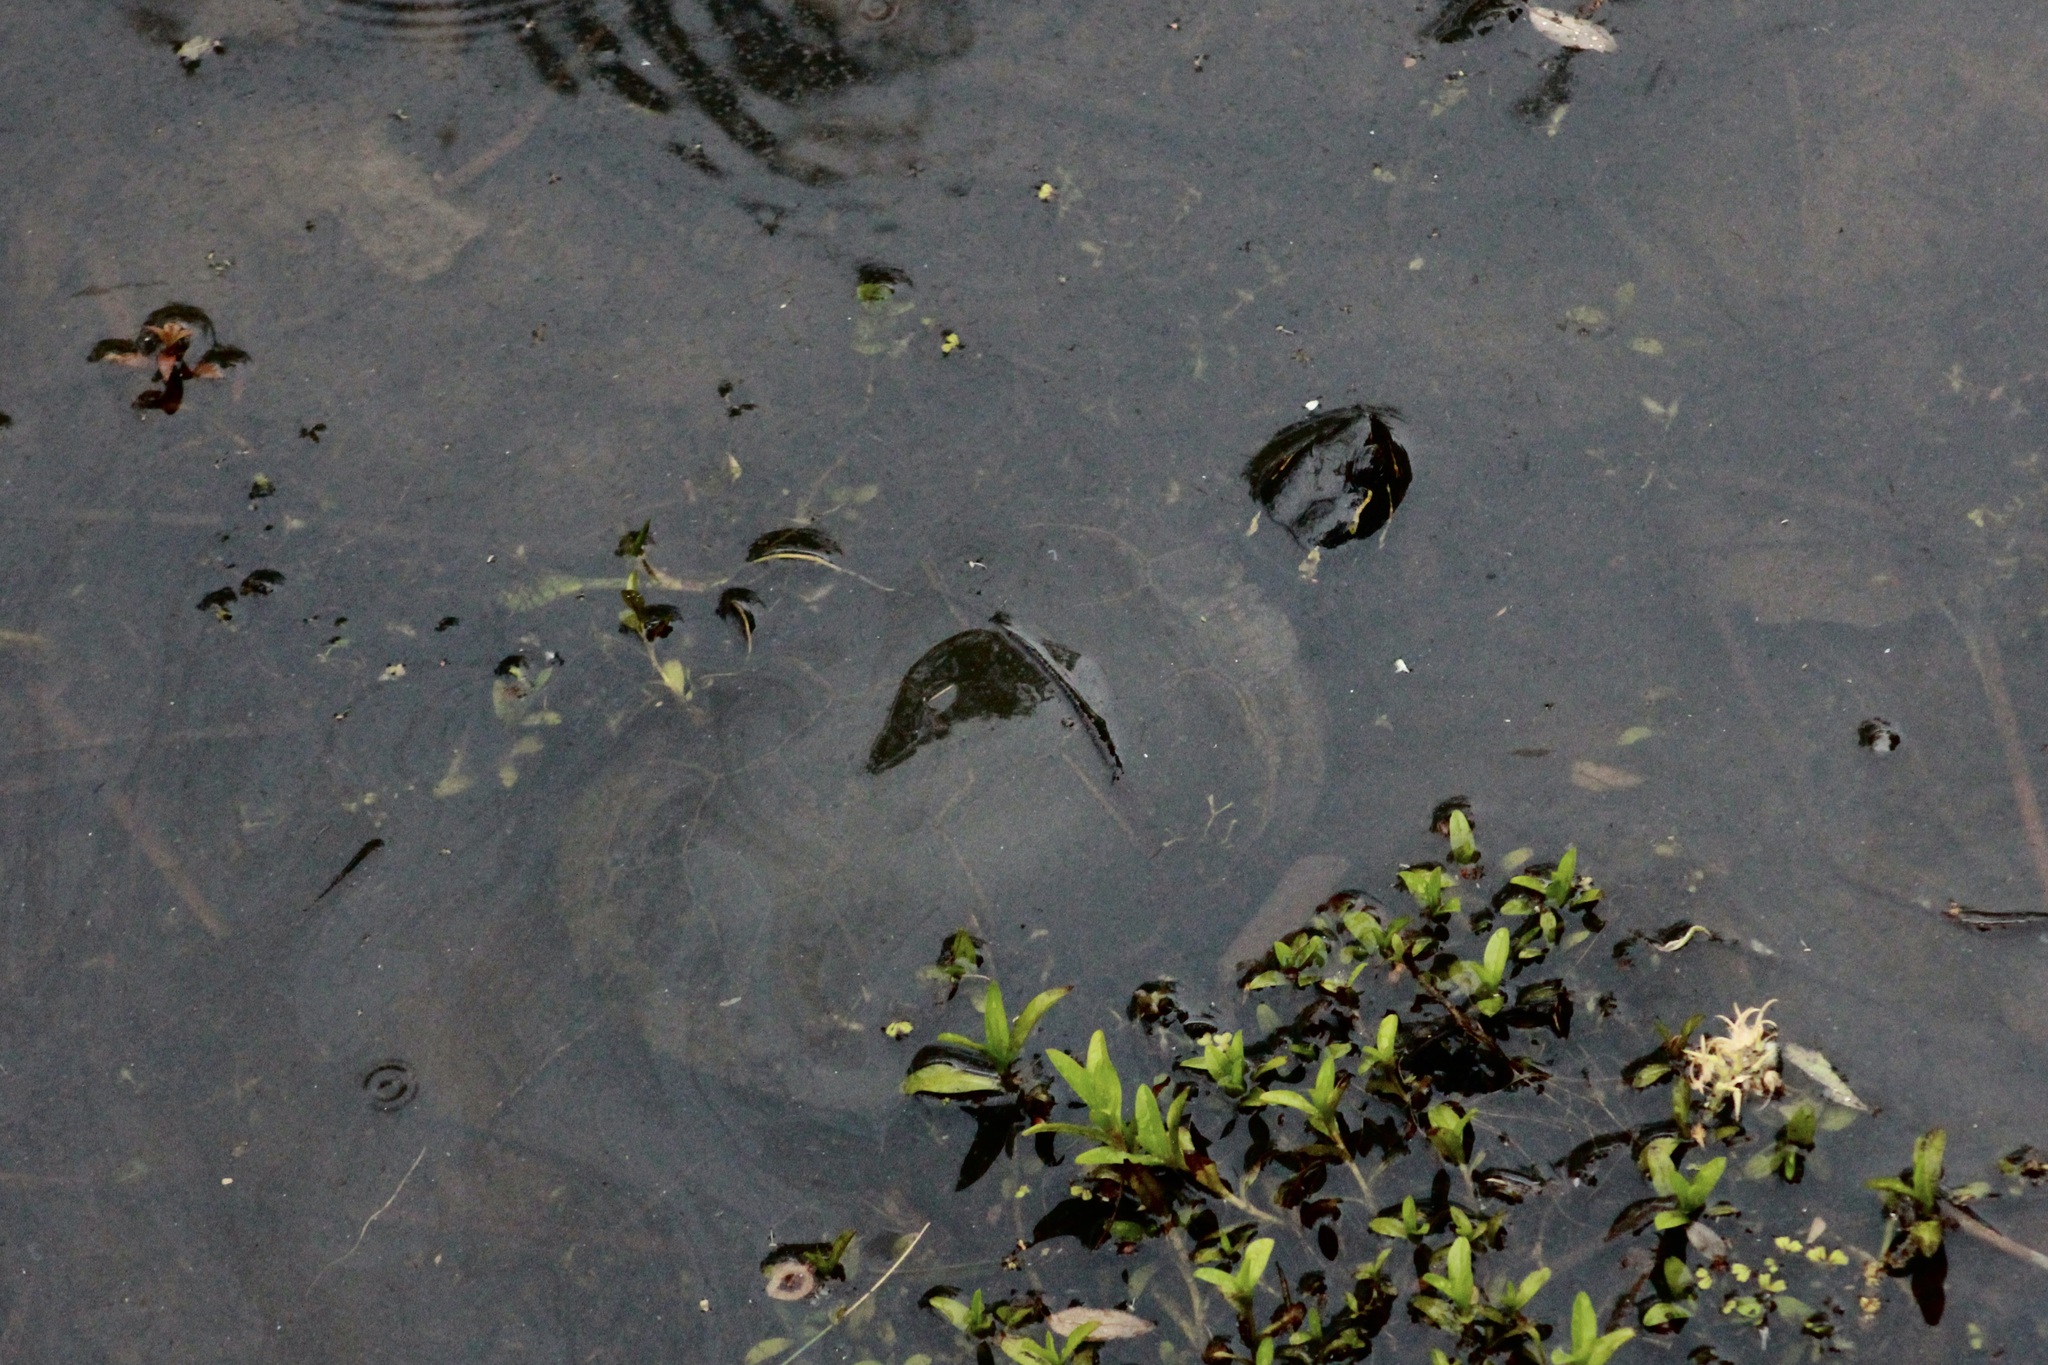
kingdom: Animalia
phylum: Chordata
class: Testudines
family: Emydidae
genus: Chrysemys
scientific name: Chrysemys picta
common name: Painted turtle
